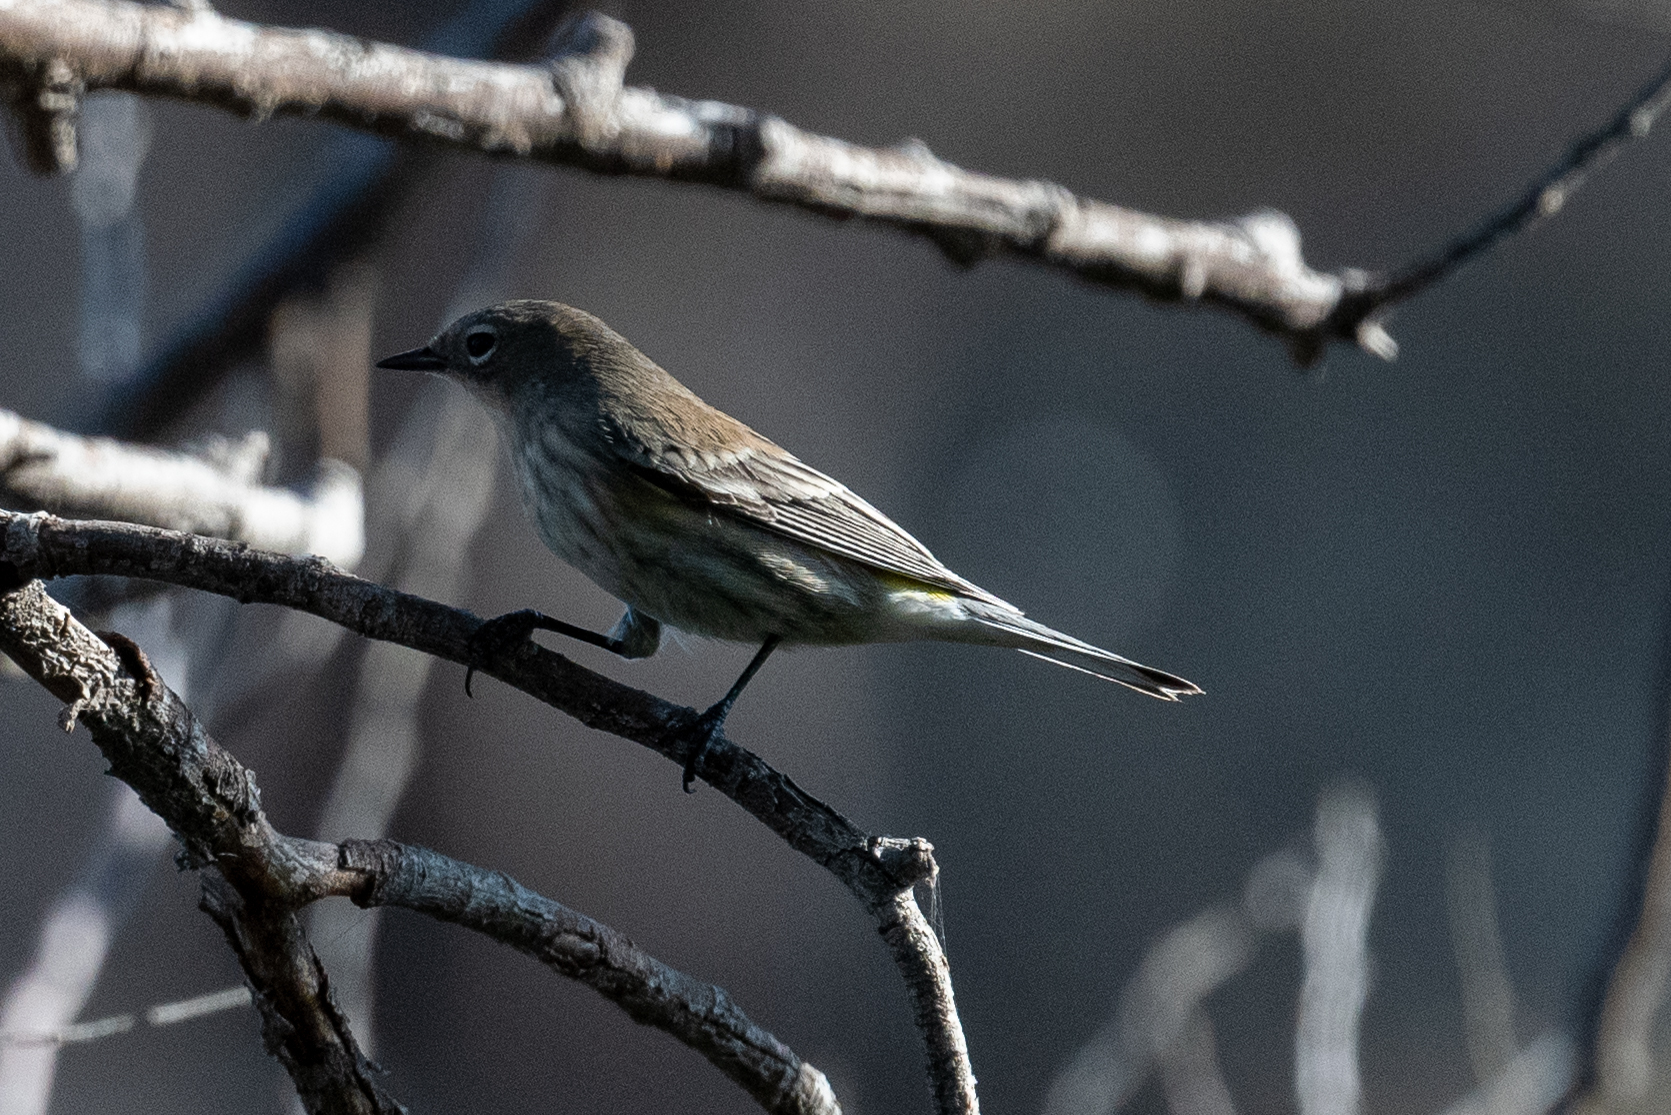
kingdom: Animalia
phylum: Chordata
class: Aves
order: Passeriformes
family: Parulidae
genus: Setophaga
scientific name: Setophaga coronata
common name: Myrtle warbler
